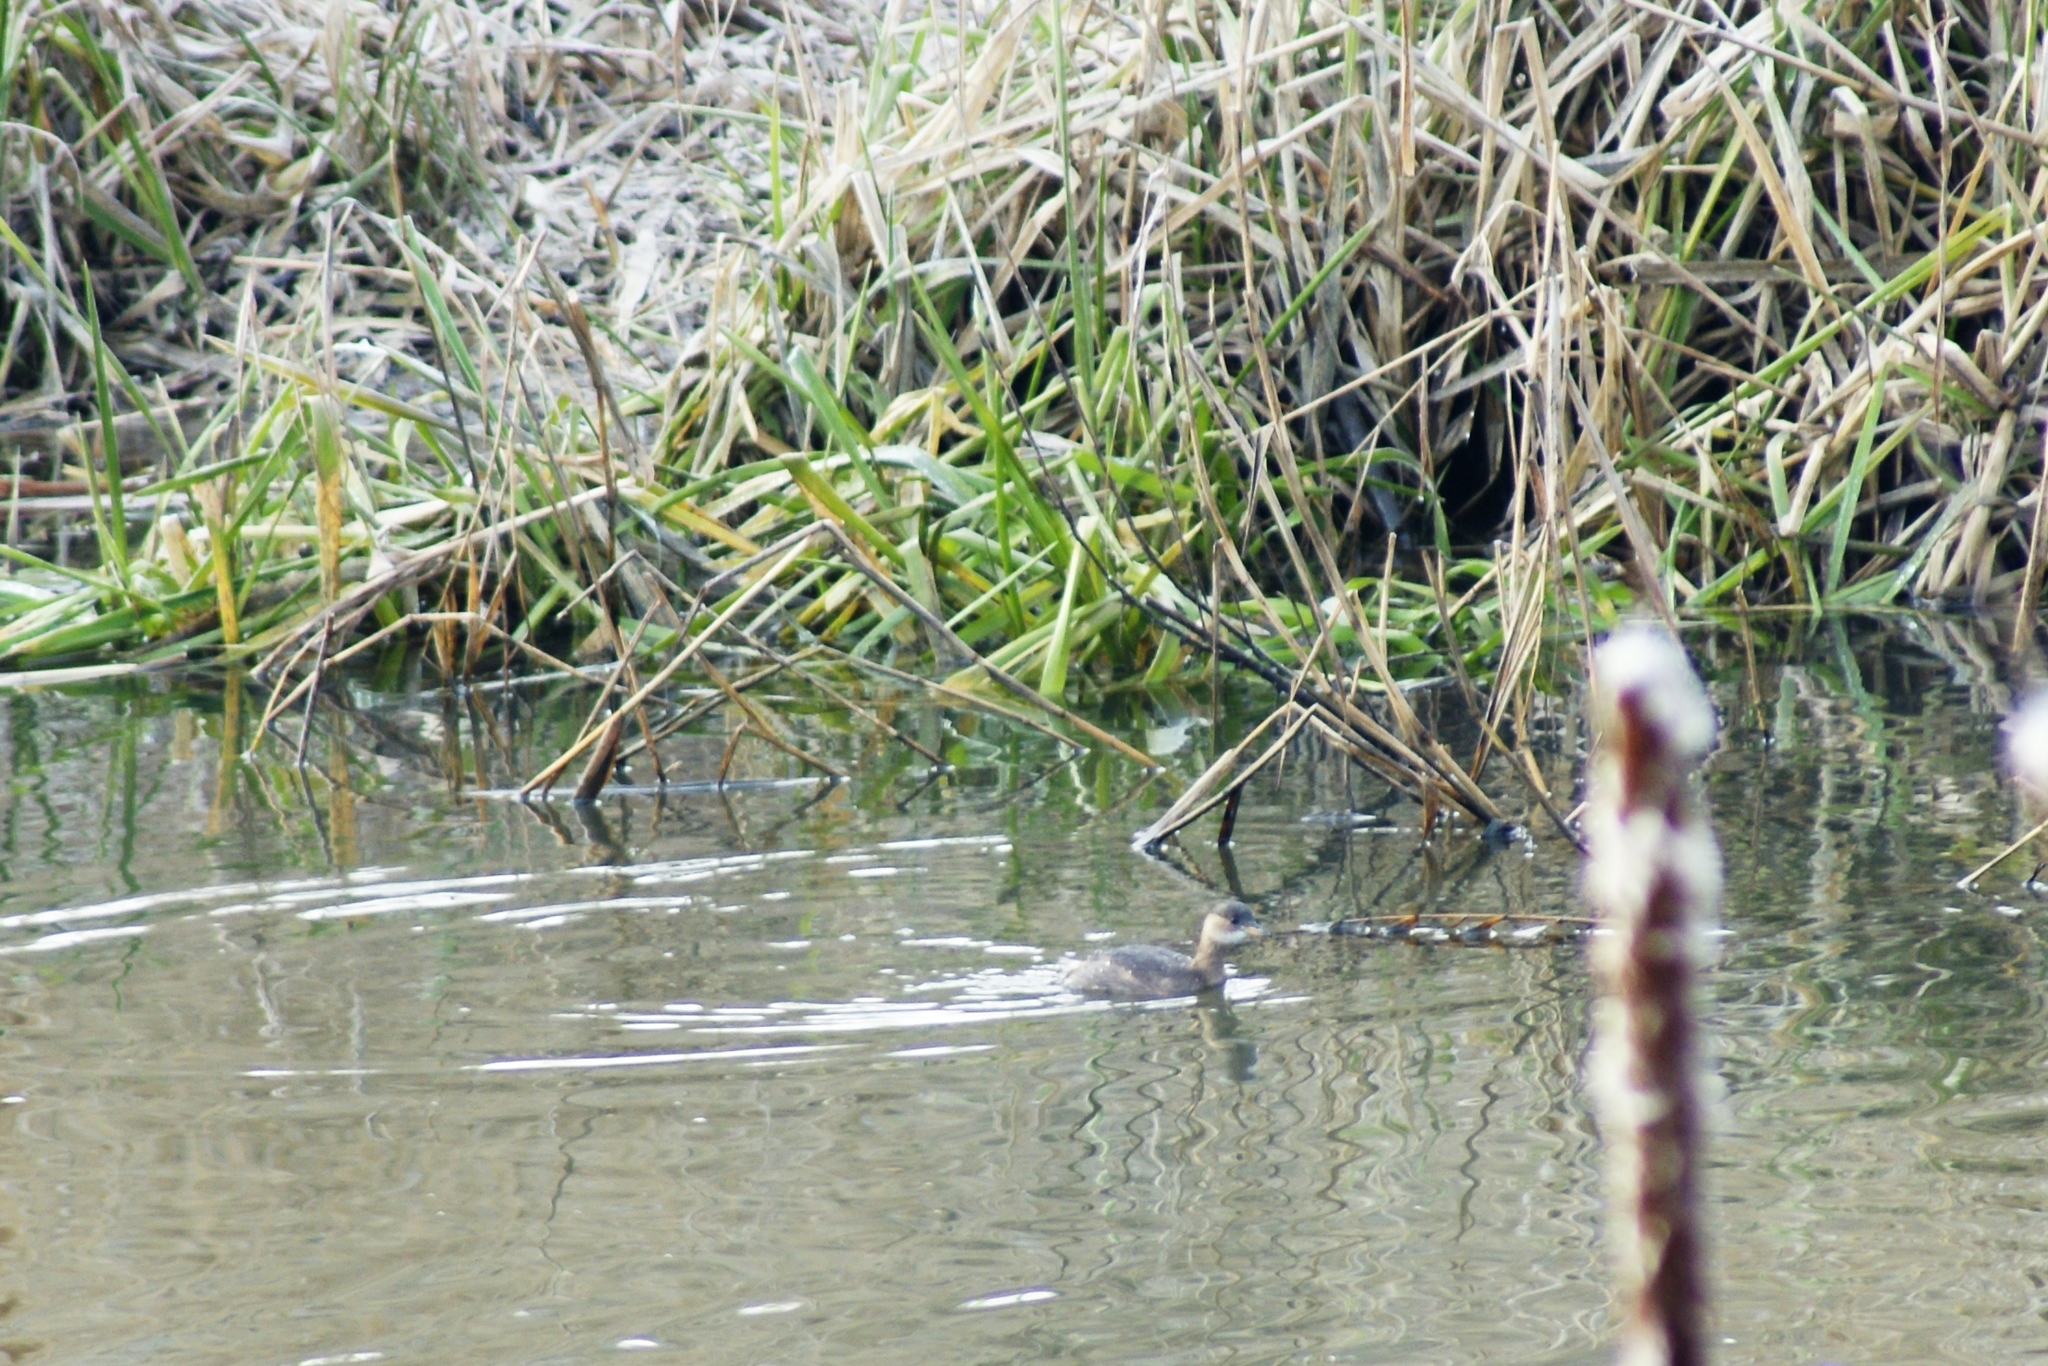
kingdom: Animalia
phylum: Chordata
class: Aves
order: Podicipediformes
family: Podicipedidae
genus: Tachybaptus
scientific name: Tachybaptus ruficollis
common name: Little grebe
